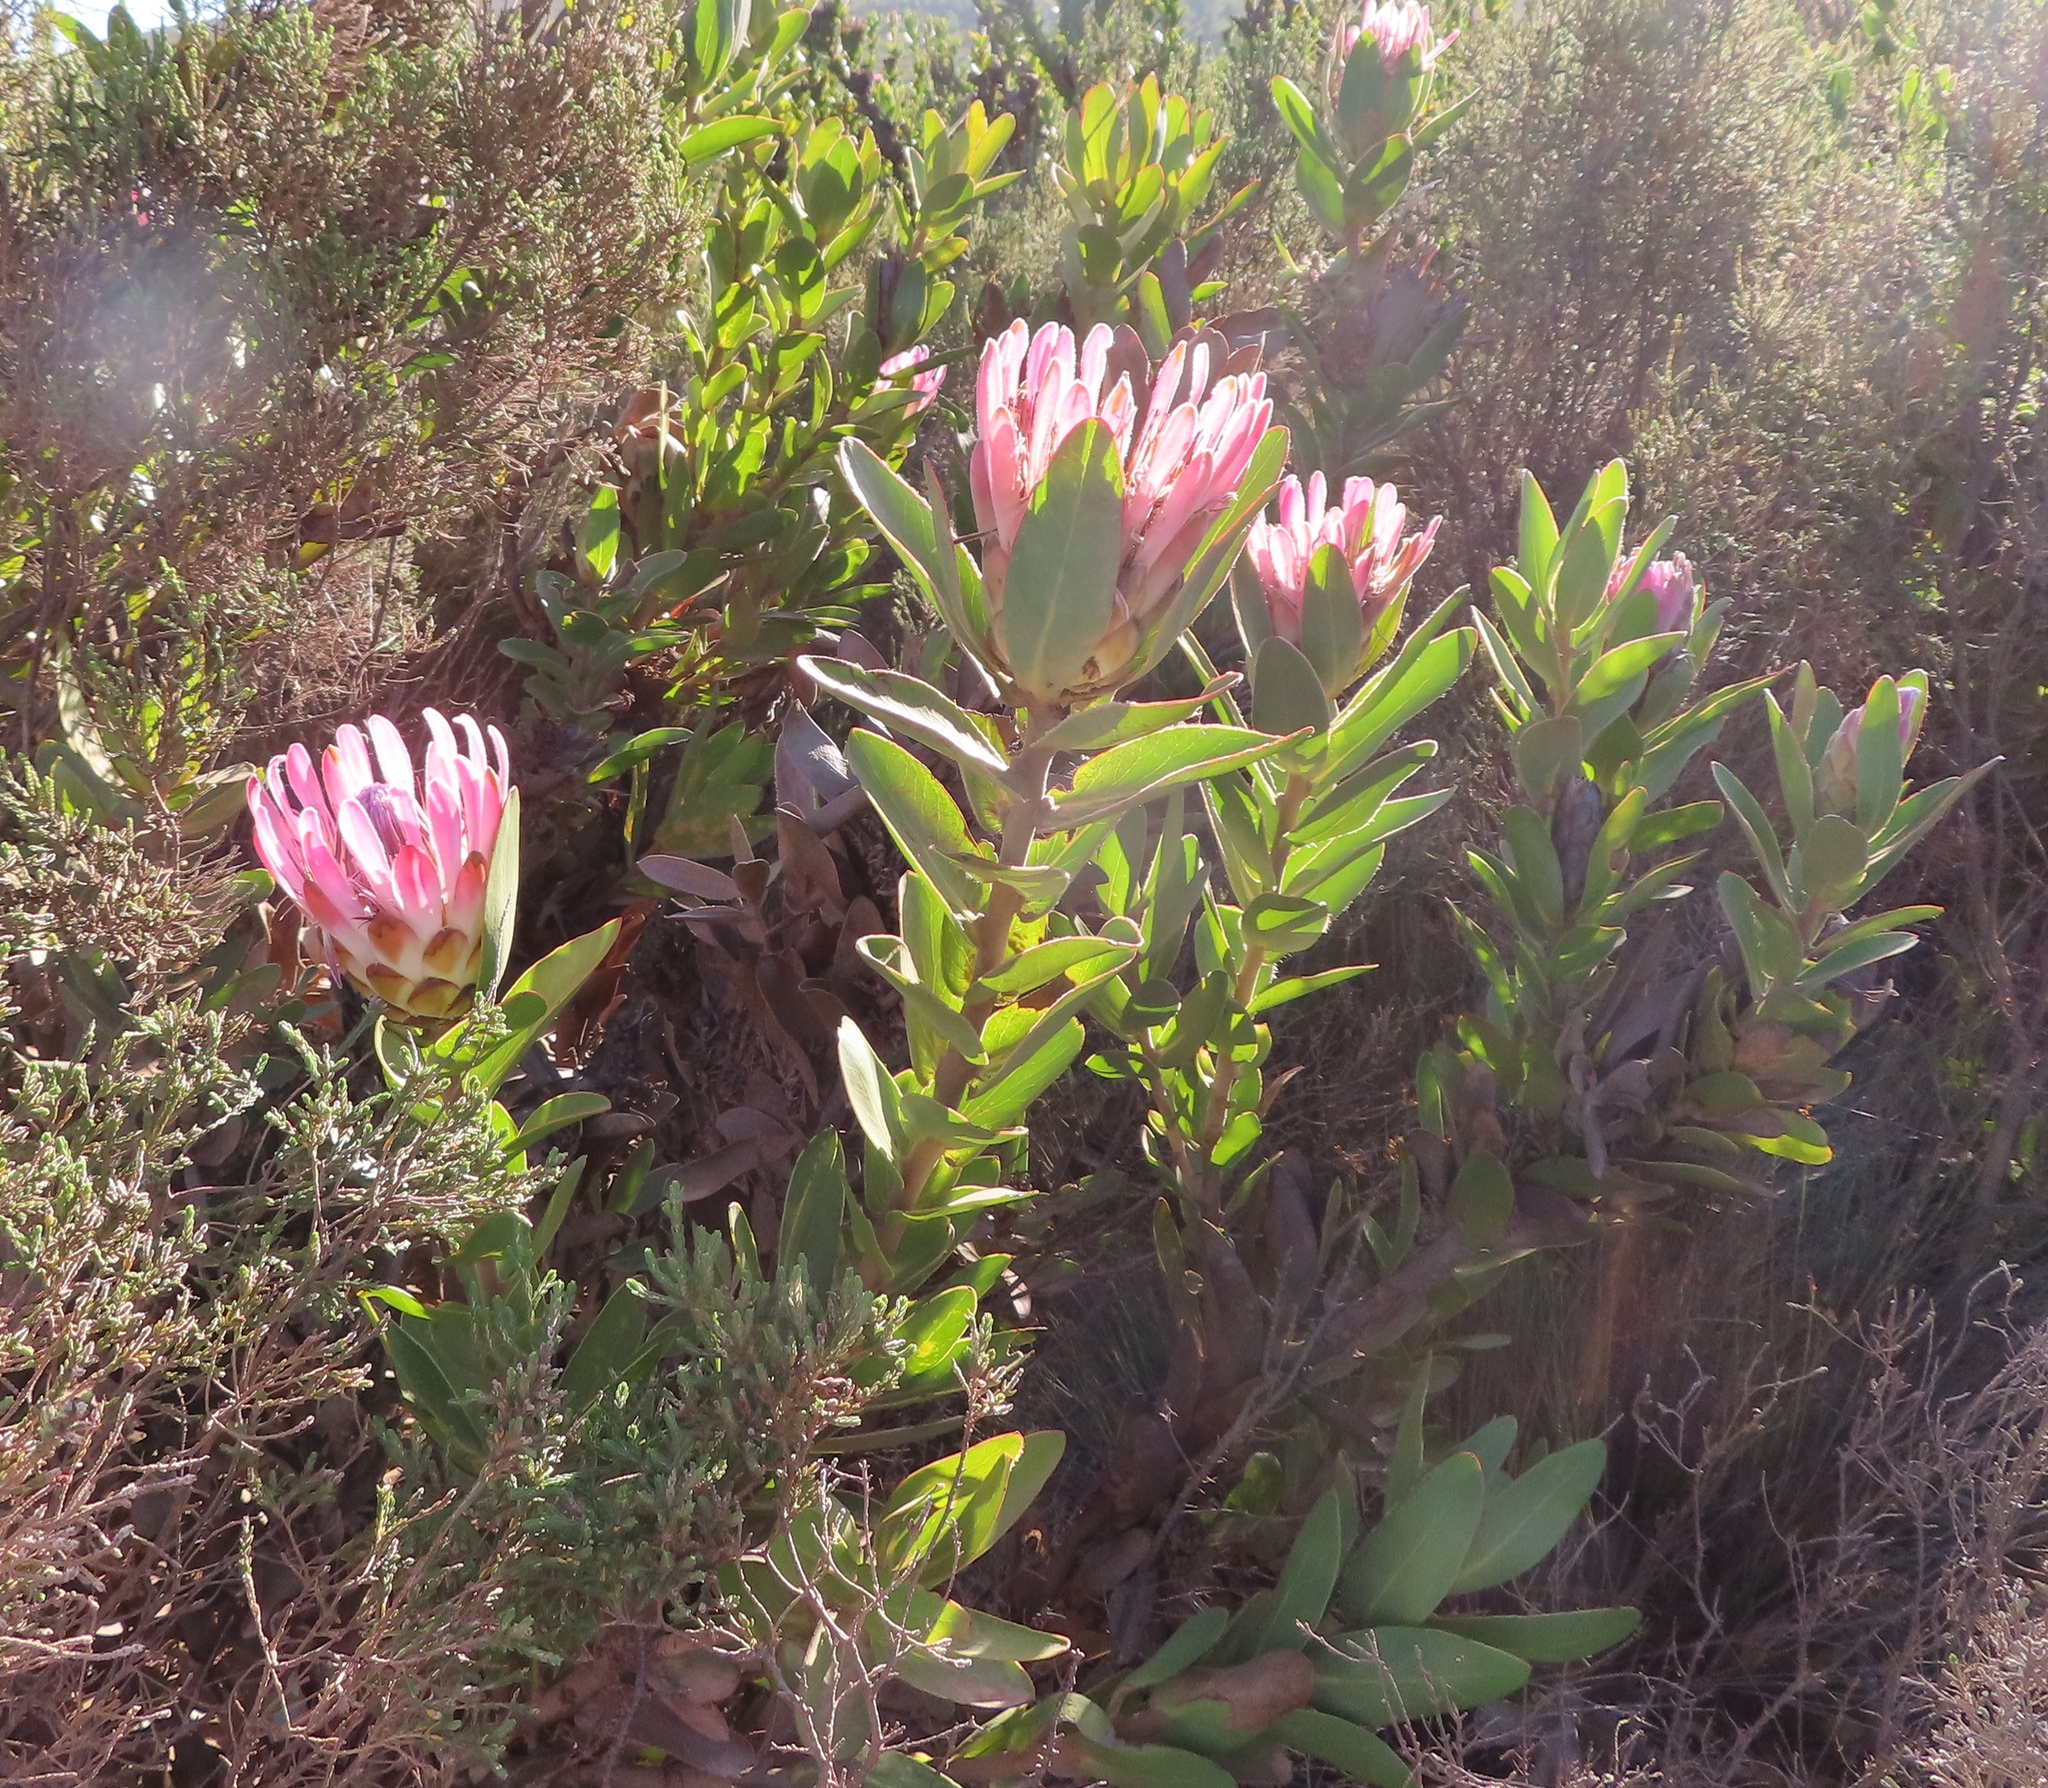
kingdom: Plantae
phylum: Tracheophyta
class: Magnoliopsida
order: Proteales
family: Proteaceae
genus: Protea
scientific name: Protea compacta
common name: Bot river protea
